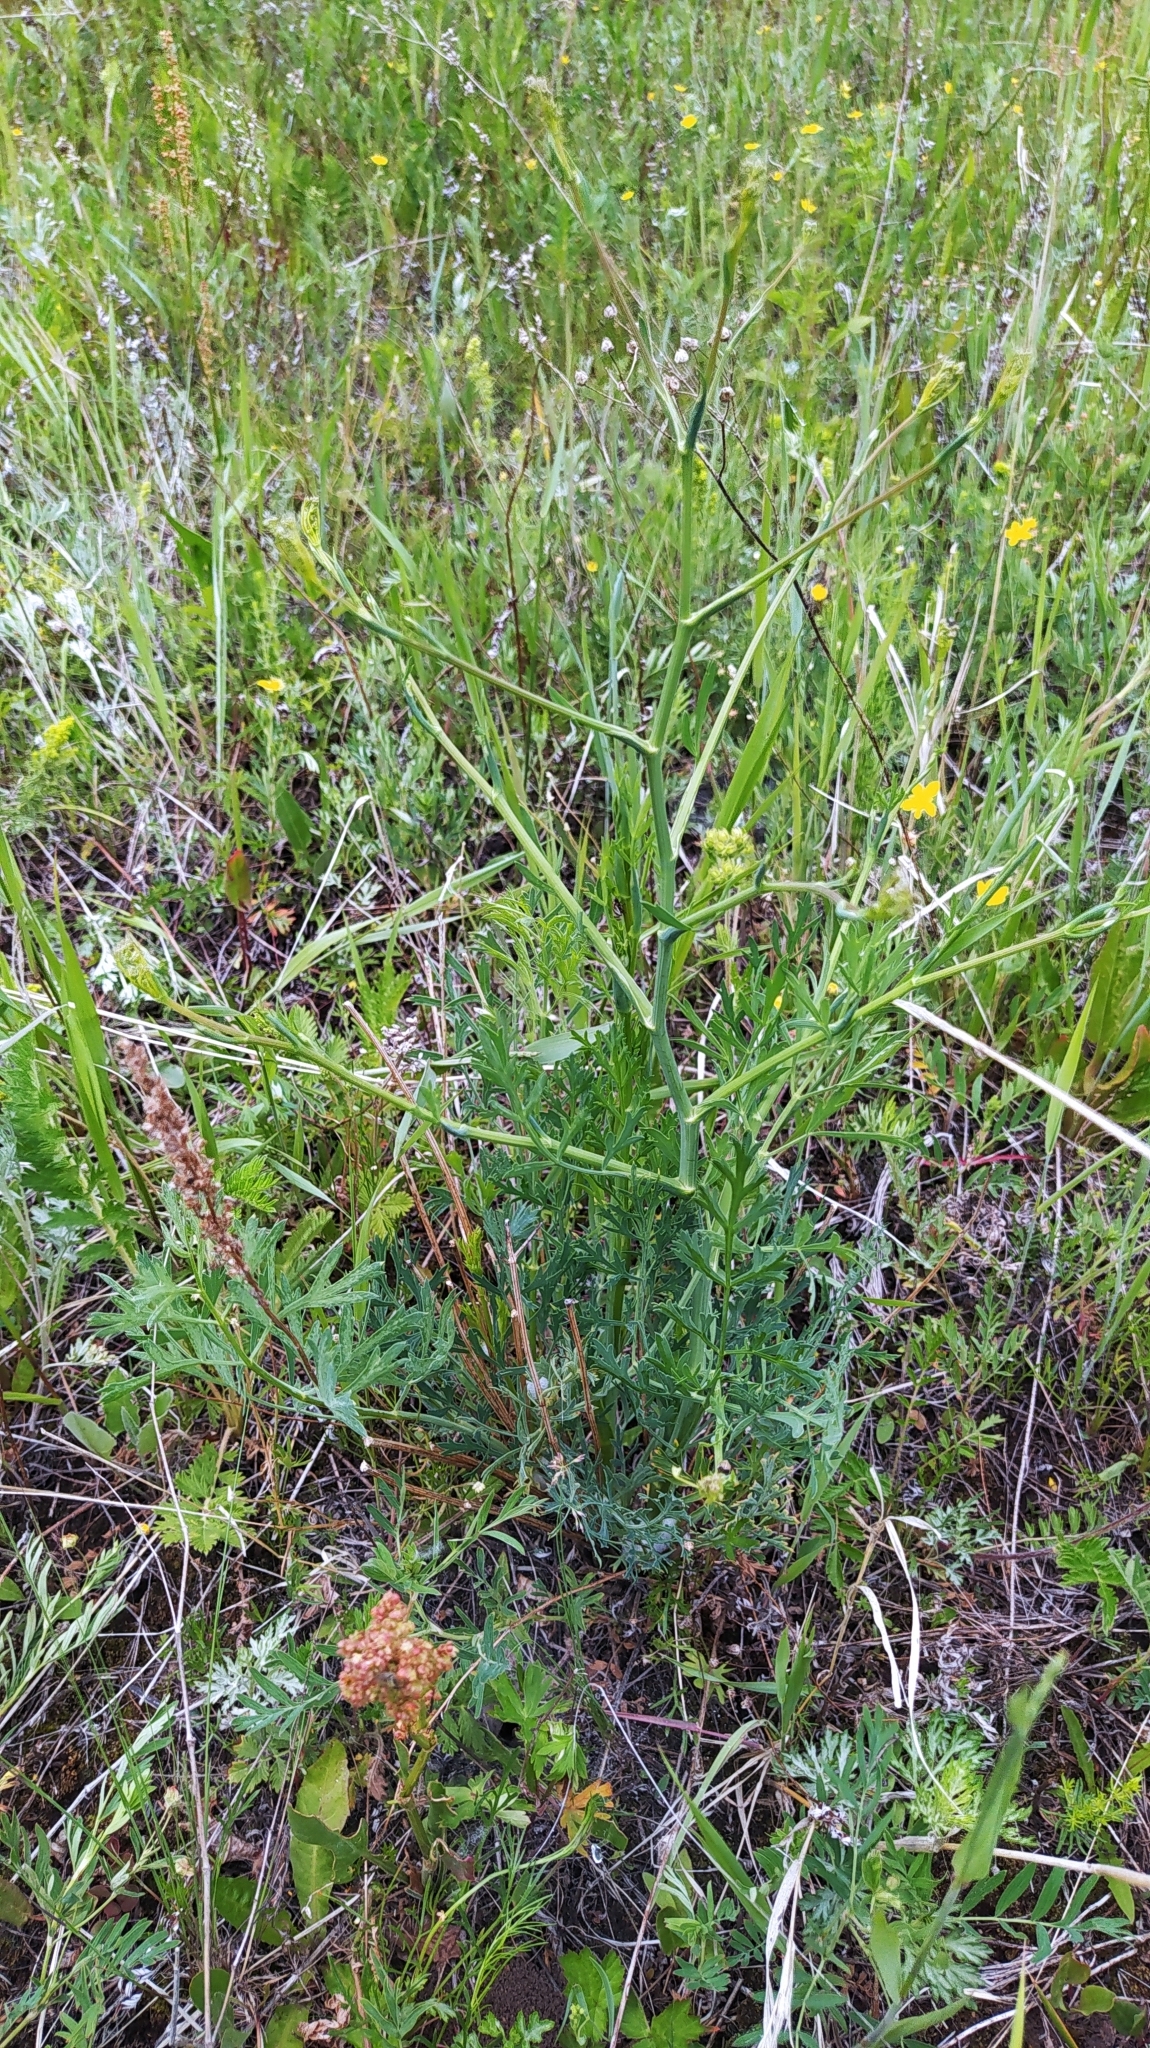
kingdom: Plantae
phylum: Tracheophyta
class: Magnoliopsida
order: Apiales
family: Apiaceae
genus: Saposhnikovia
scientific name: Saposhnikovia divaricata
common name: Siler
